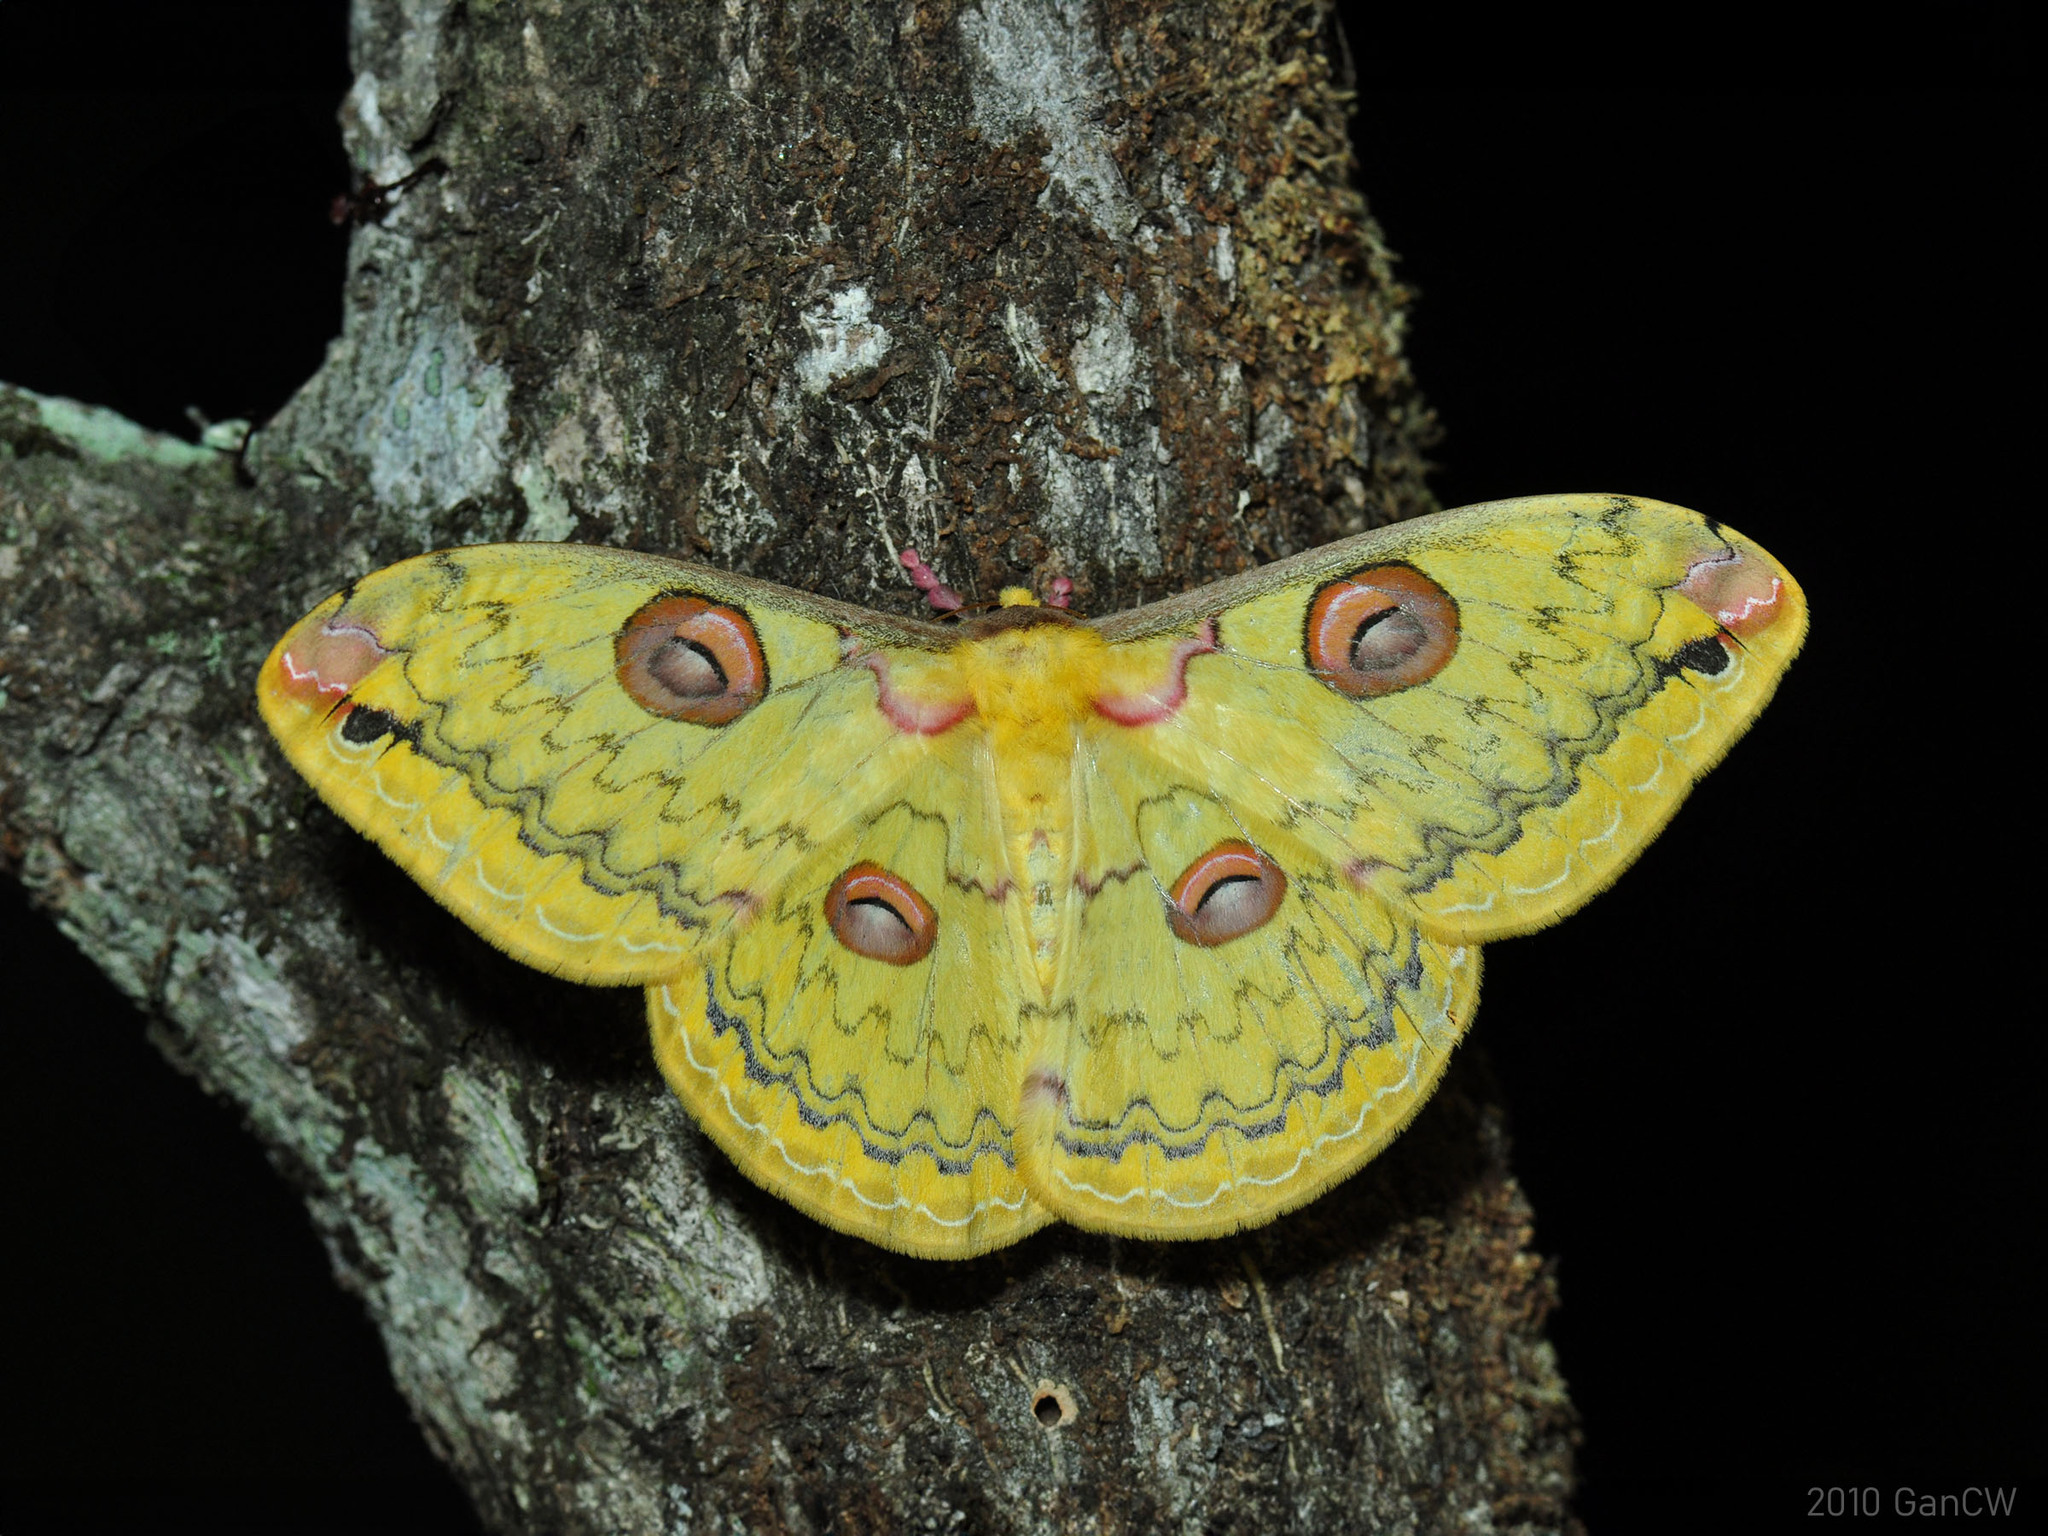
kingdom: Animalia
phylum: Arthropoda
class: Insecta
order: Lepidoptera
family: Saturniidae
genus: Loepa
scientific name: Loepa siamensis
